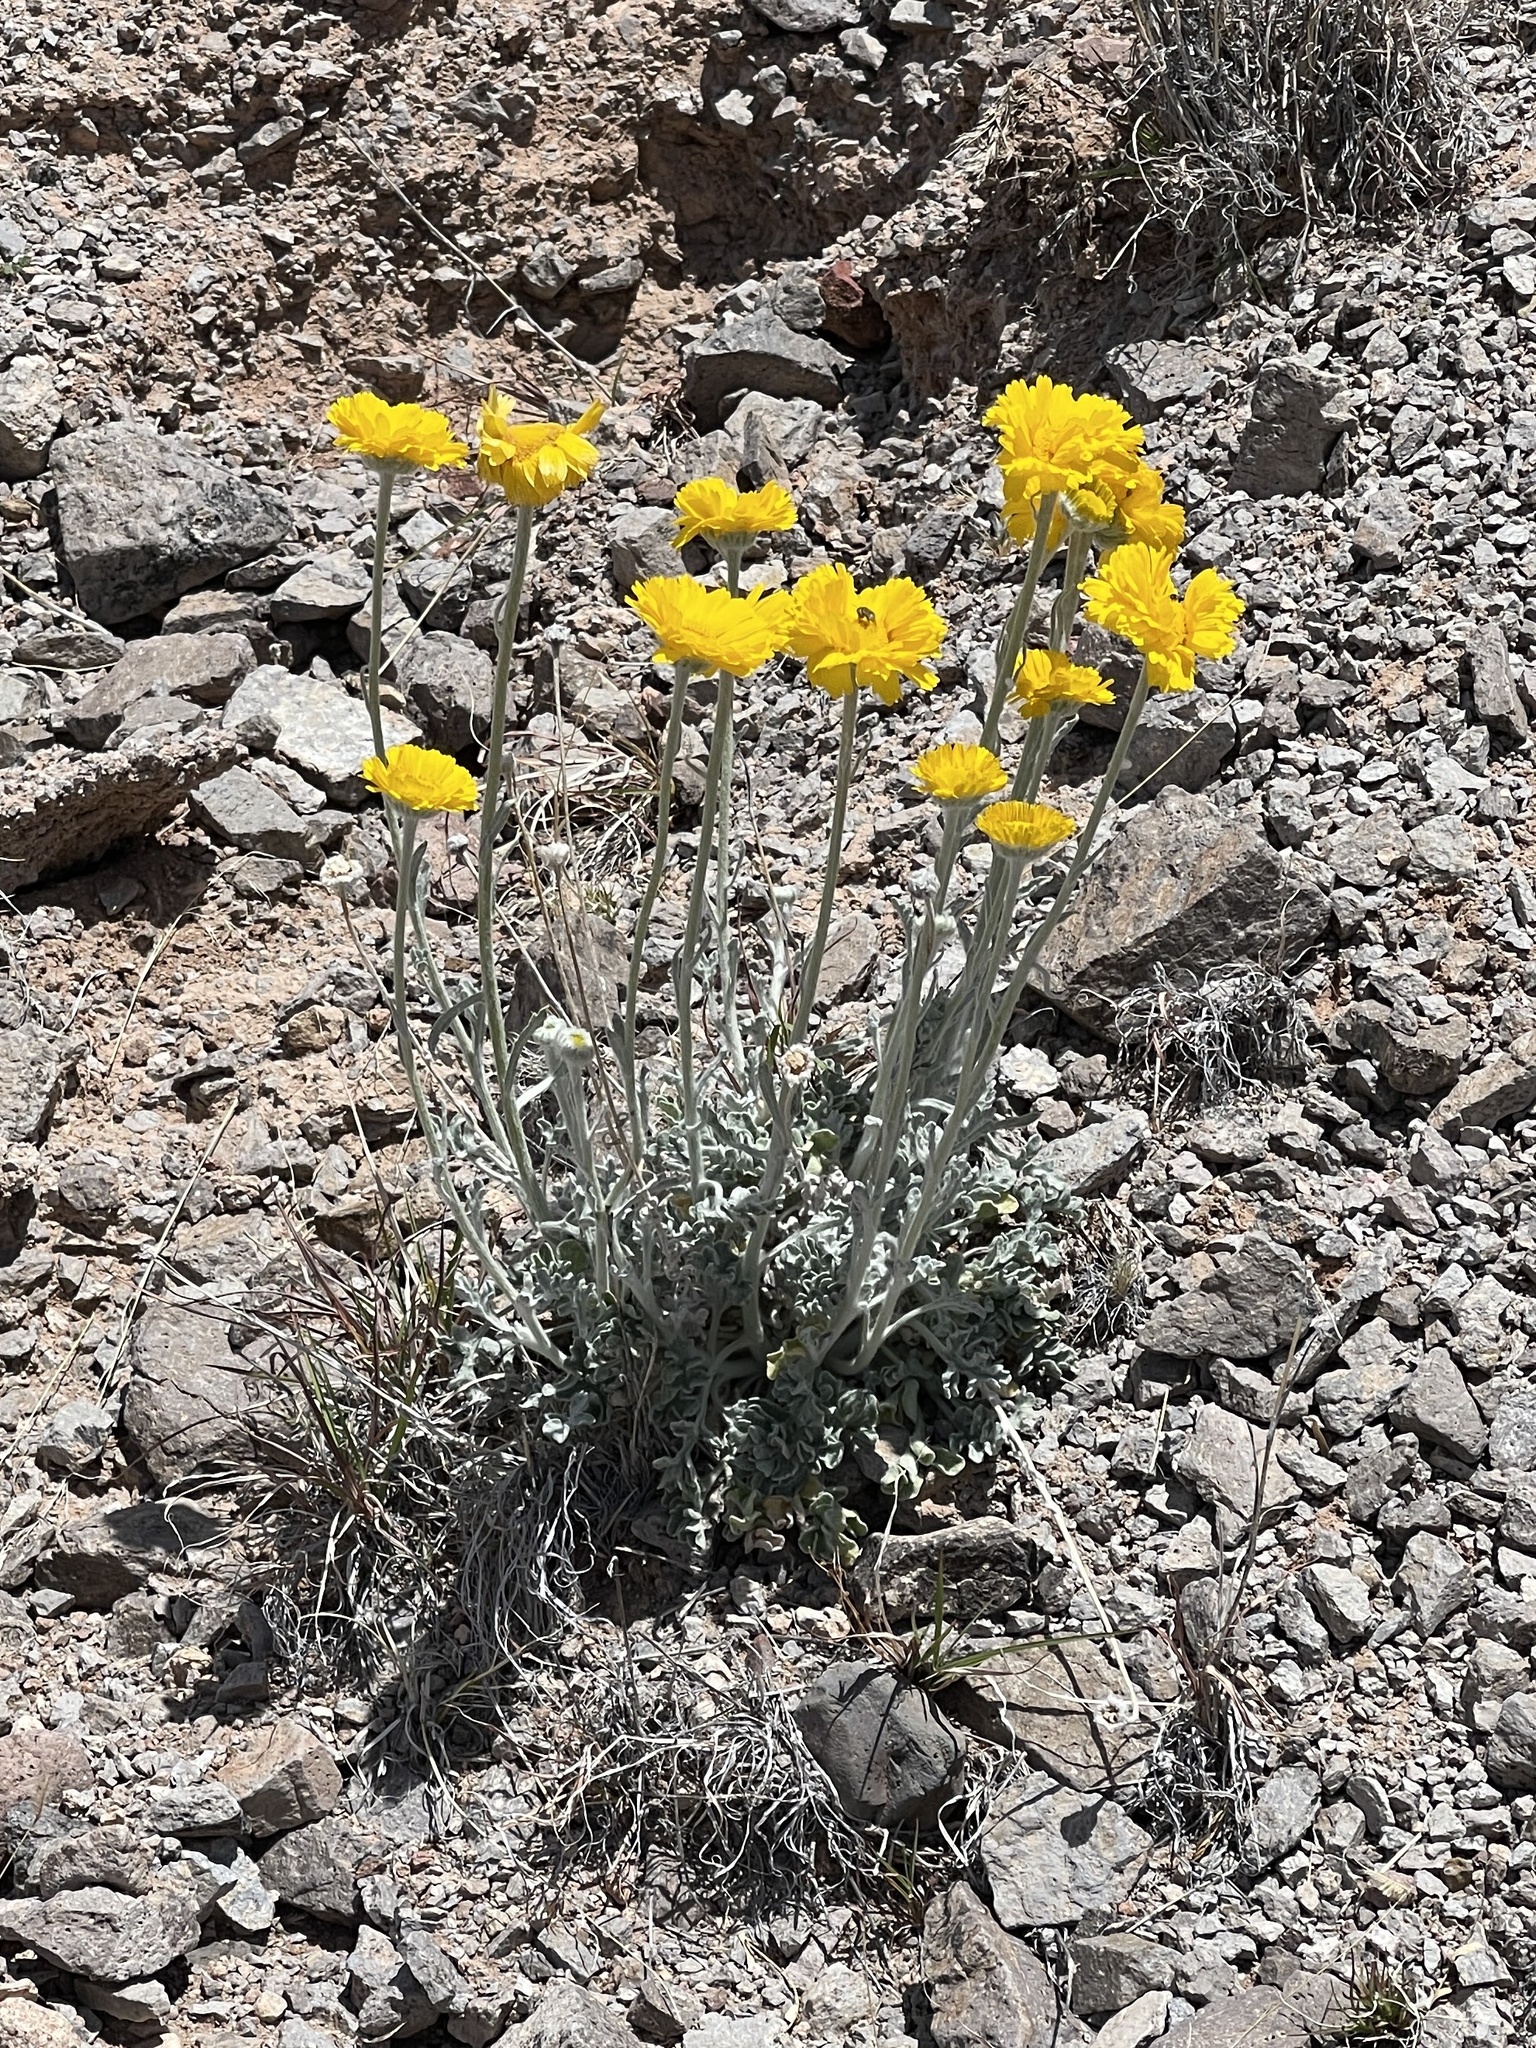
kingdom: Plantae
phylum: Tracheophyta
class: Magnoliopsida
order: Asterales
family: Asteraceae
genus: Baileya
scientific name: Baileya multiradiata
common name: Desert-marigold
